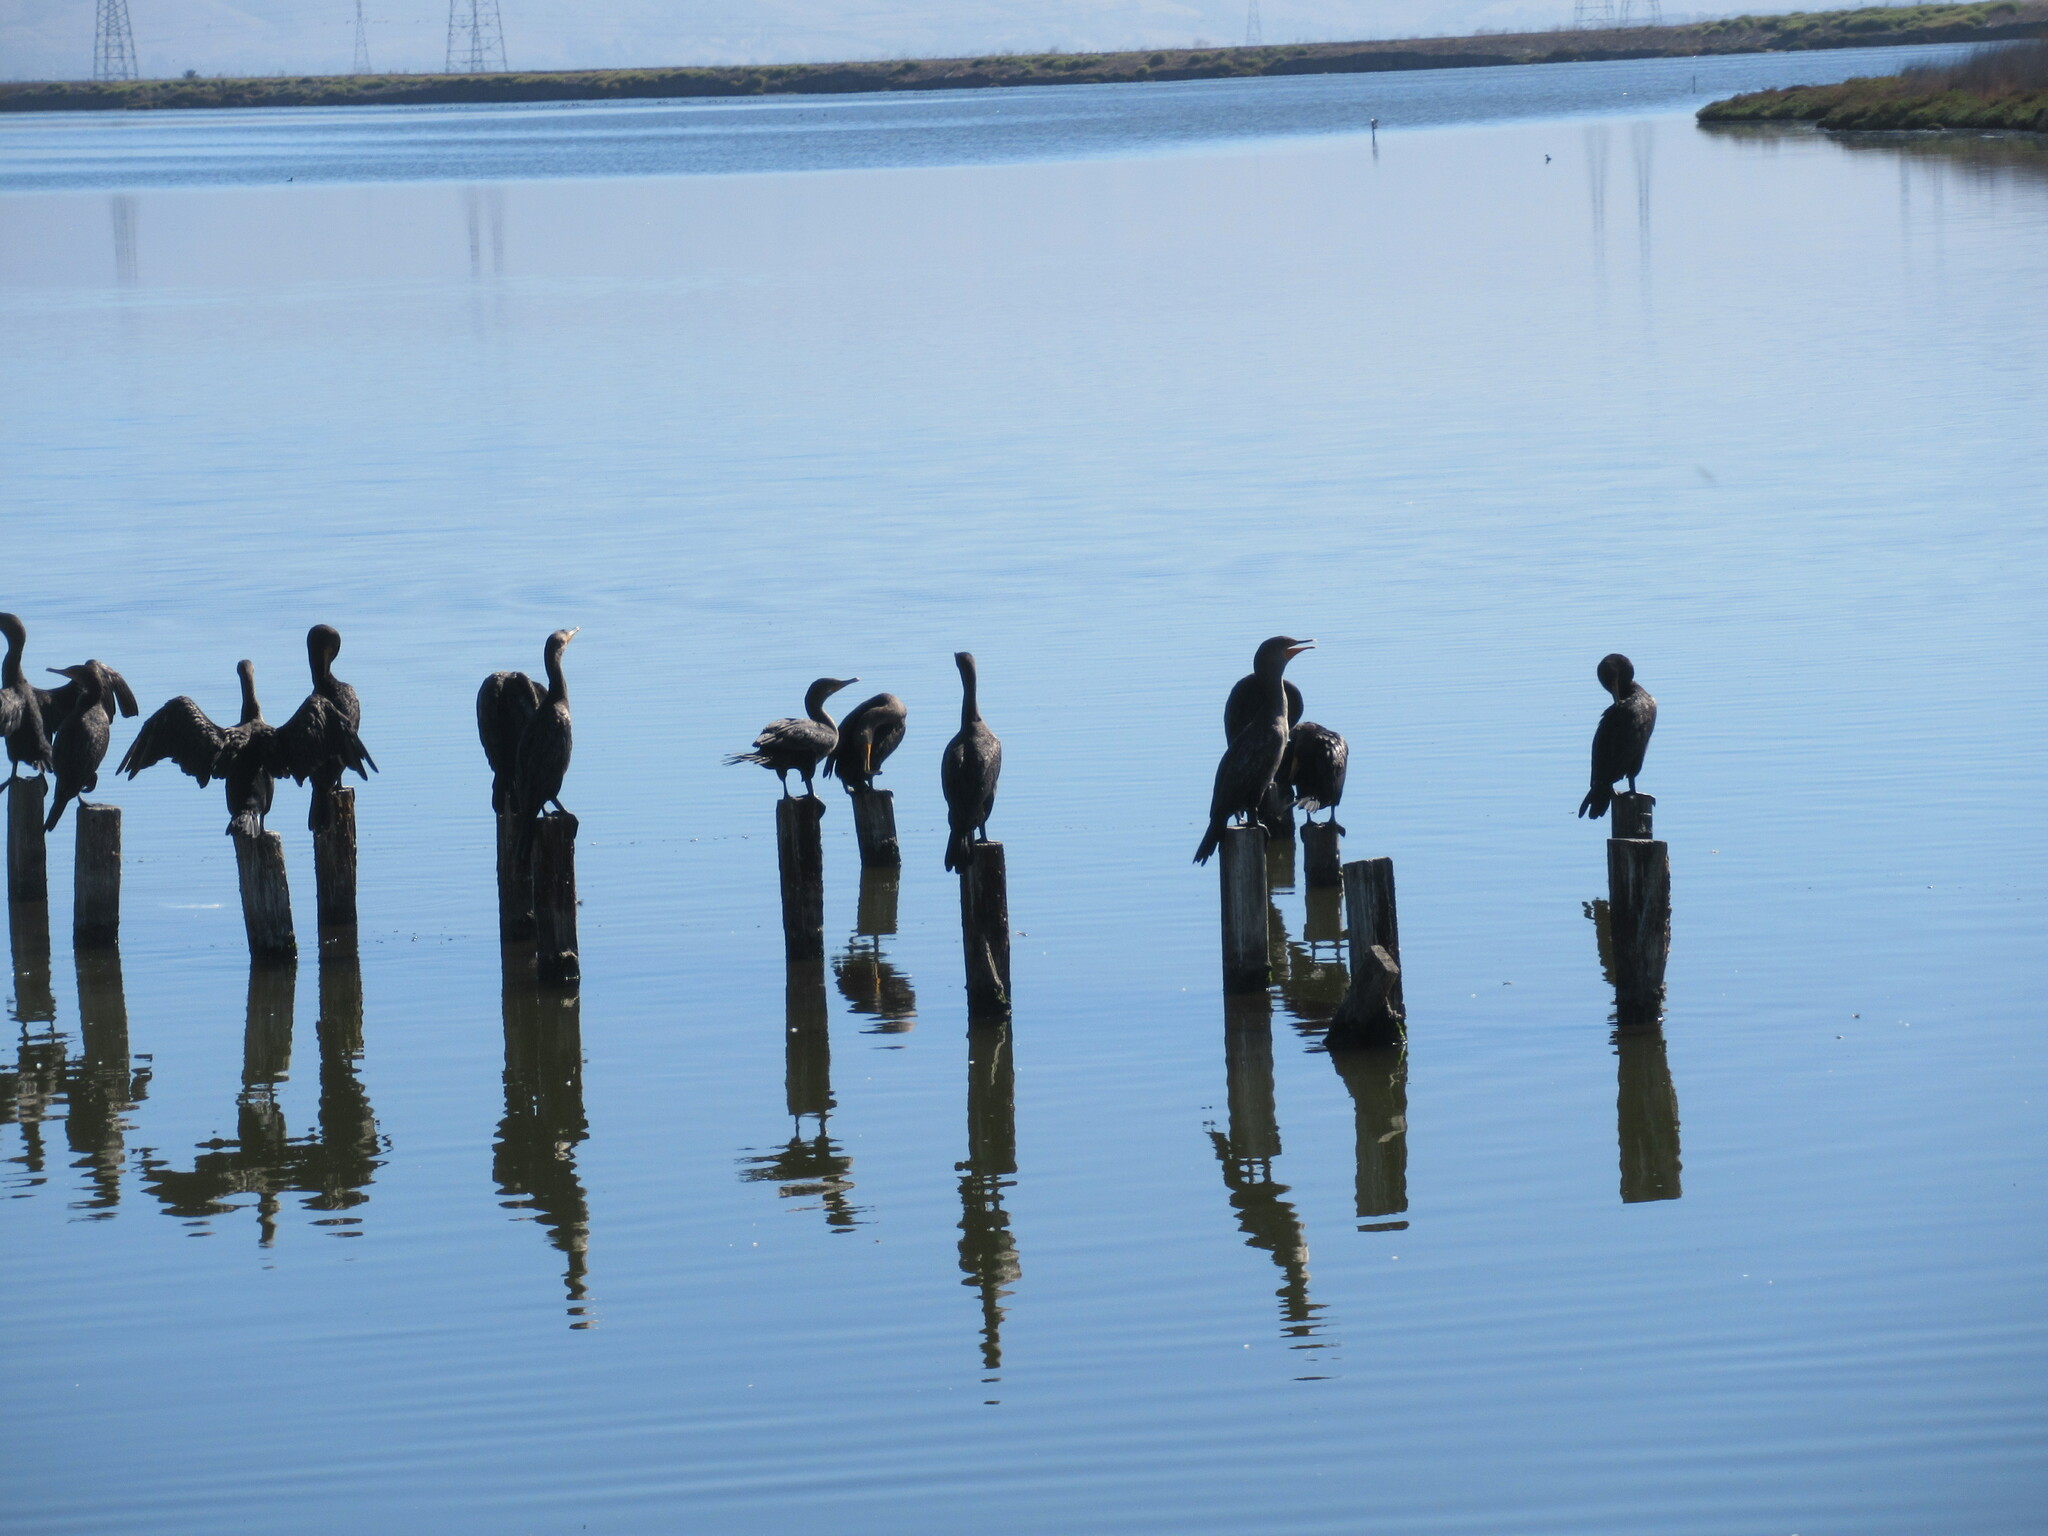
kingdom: Animalia
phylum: Chordata
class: Aves
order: Suliformes
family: Phalacrocoracidae
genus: Phalacrocorax
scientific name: Phalacrocorax auritus
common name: Double-crested cormorant
